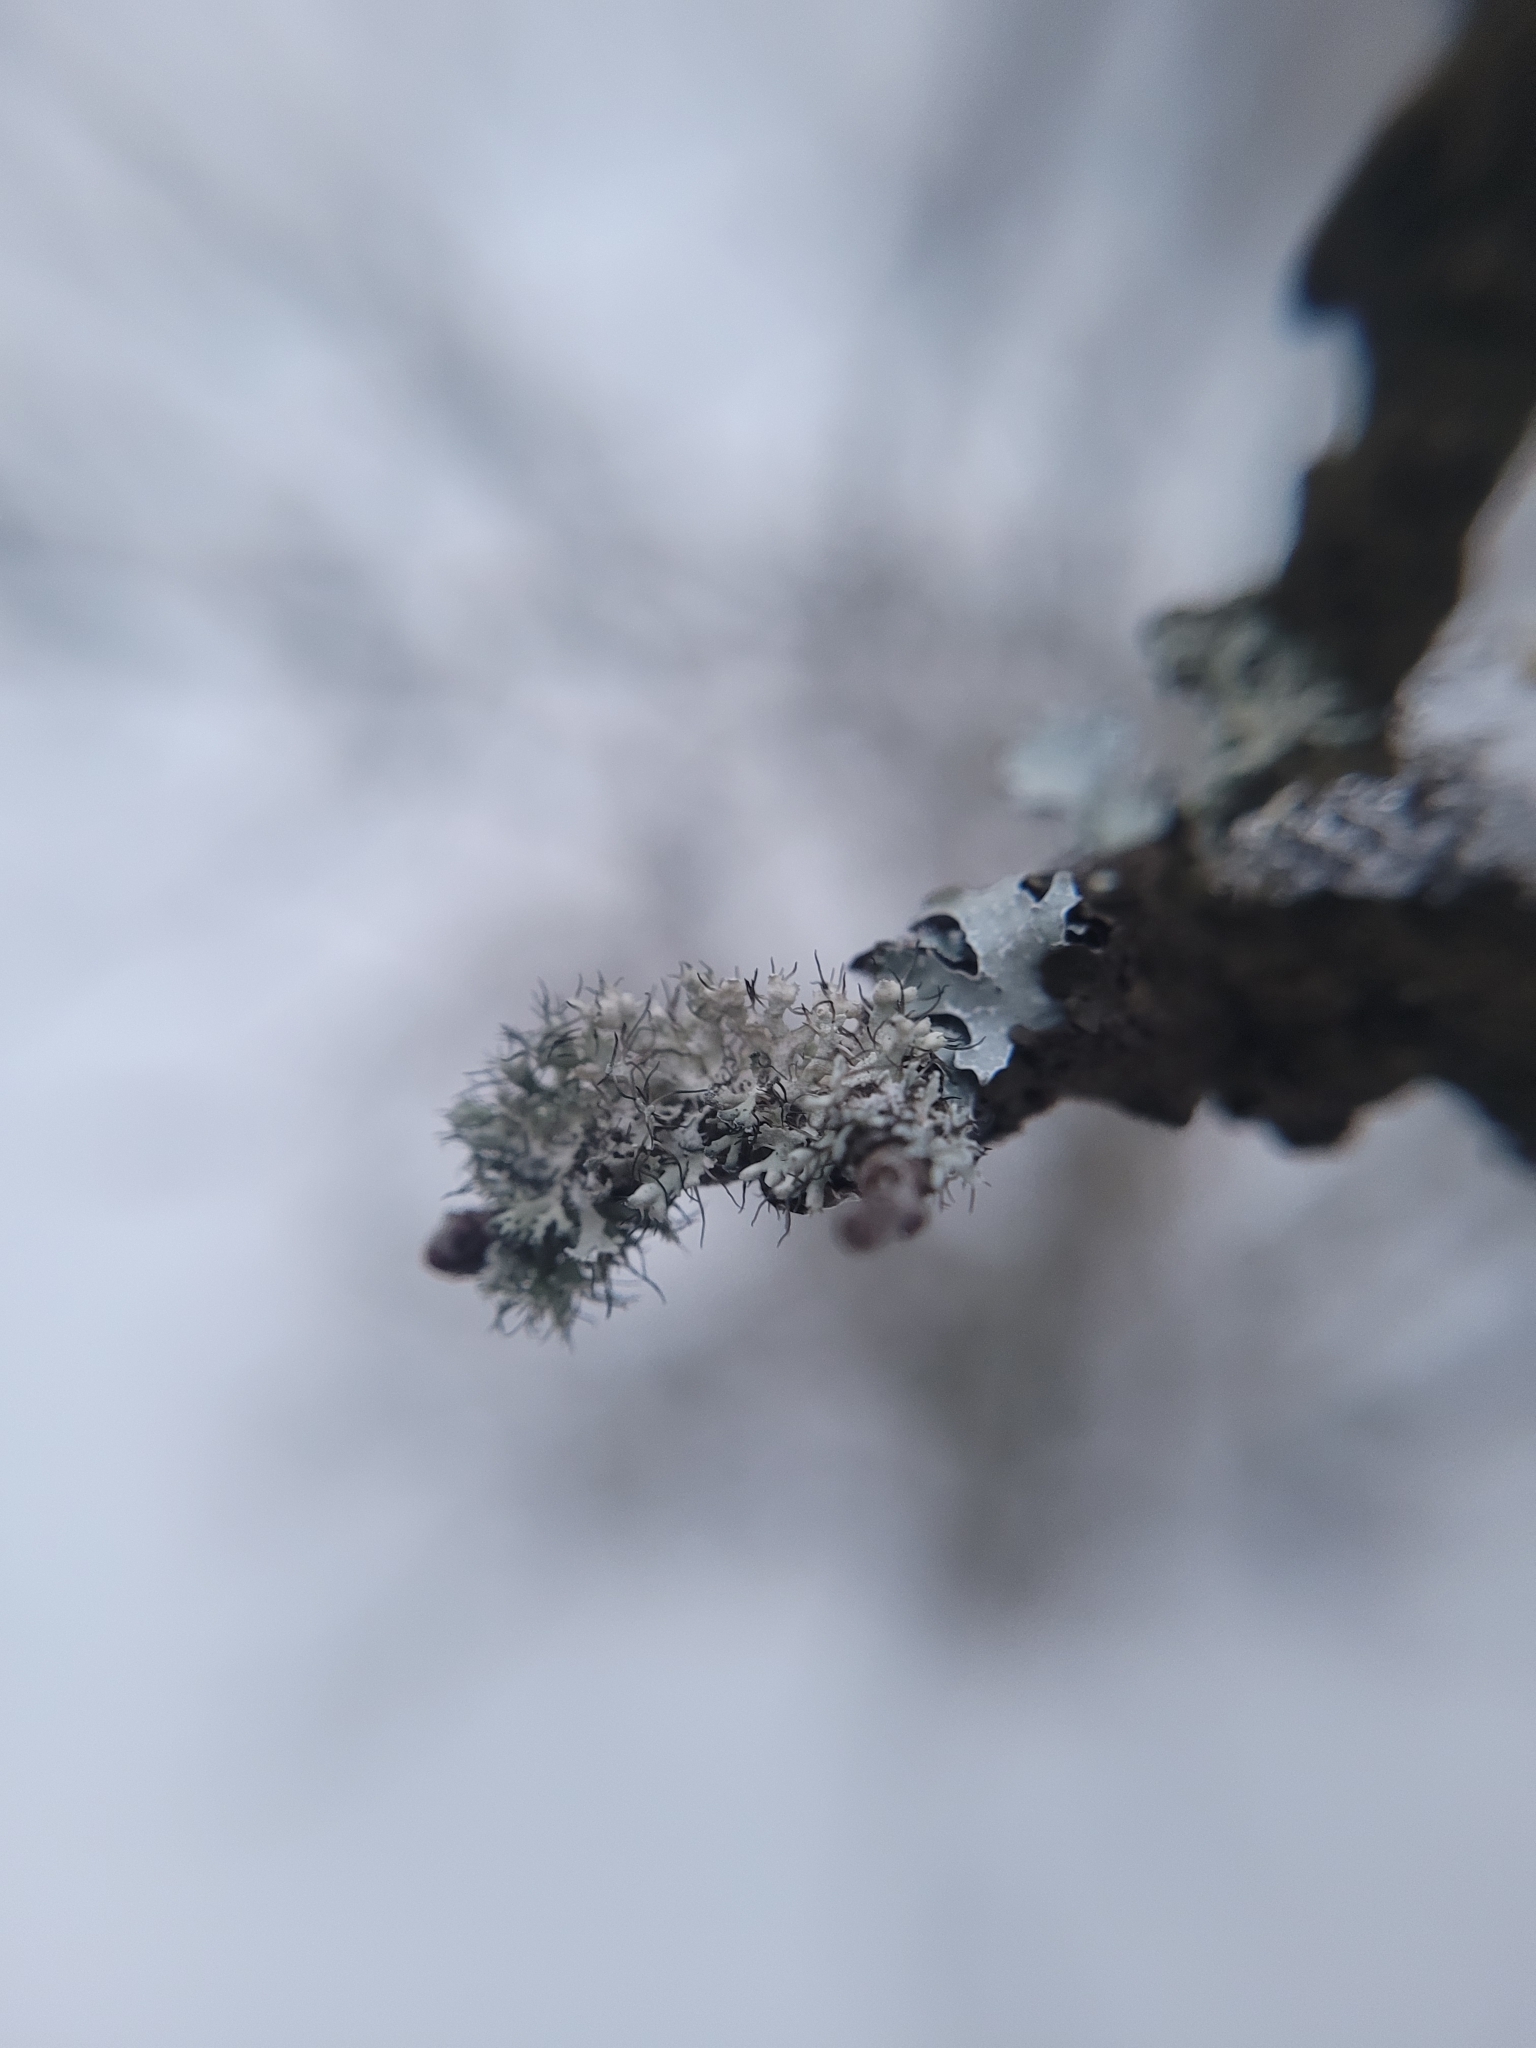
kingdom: Fungi
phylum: Ascomycota
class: Lecanoromycetes
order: Caliciales
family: Physciaceae
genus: Physcia
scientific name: Physcia adscendens
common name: Hooded rosette lichen
